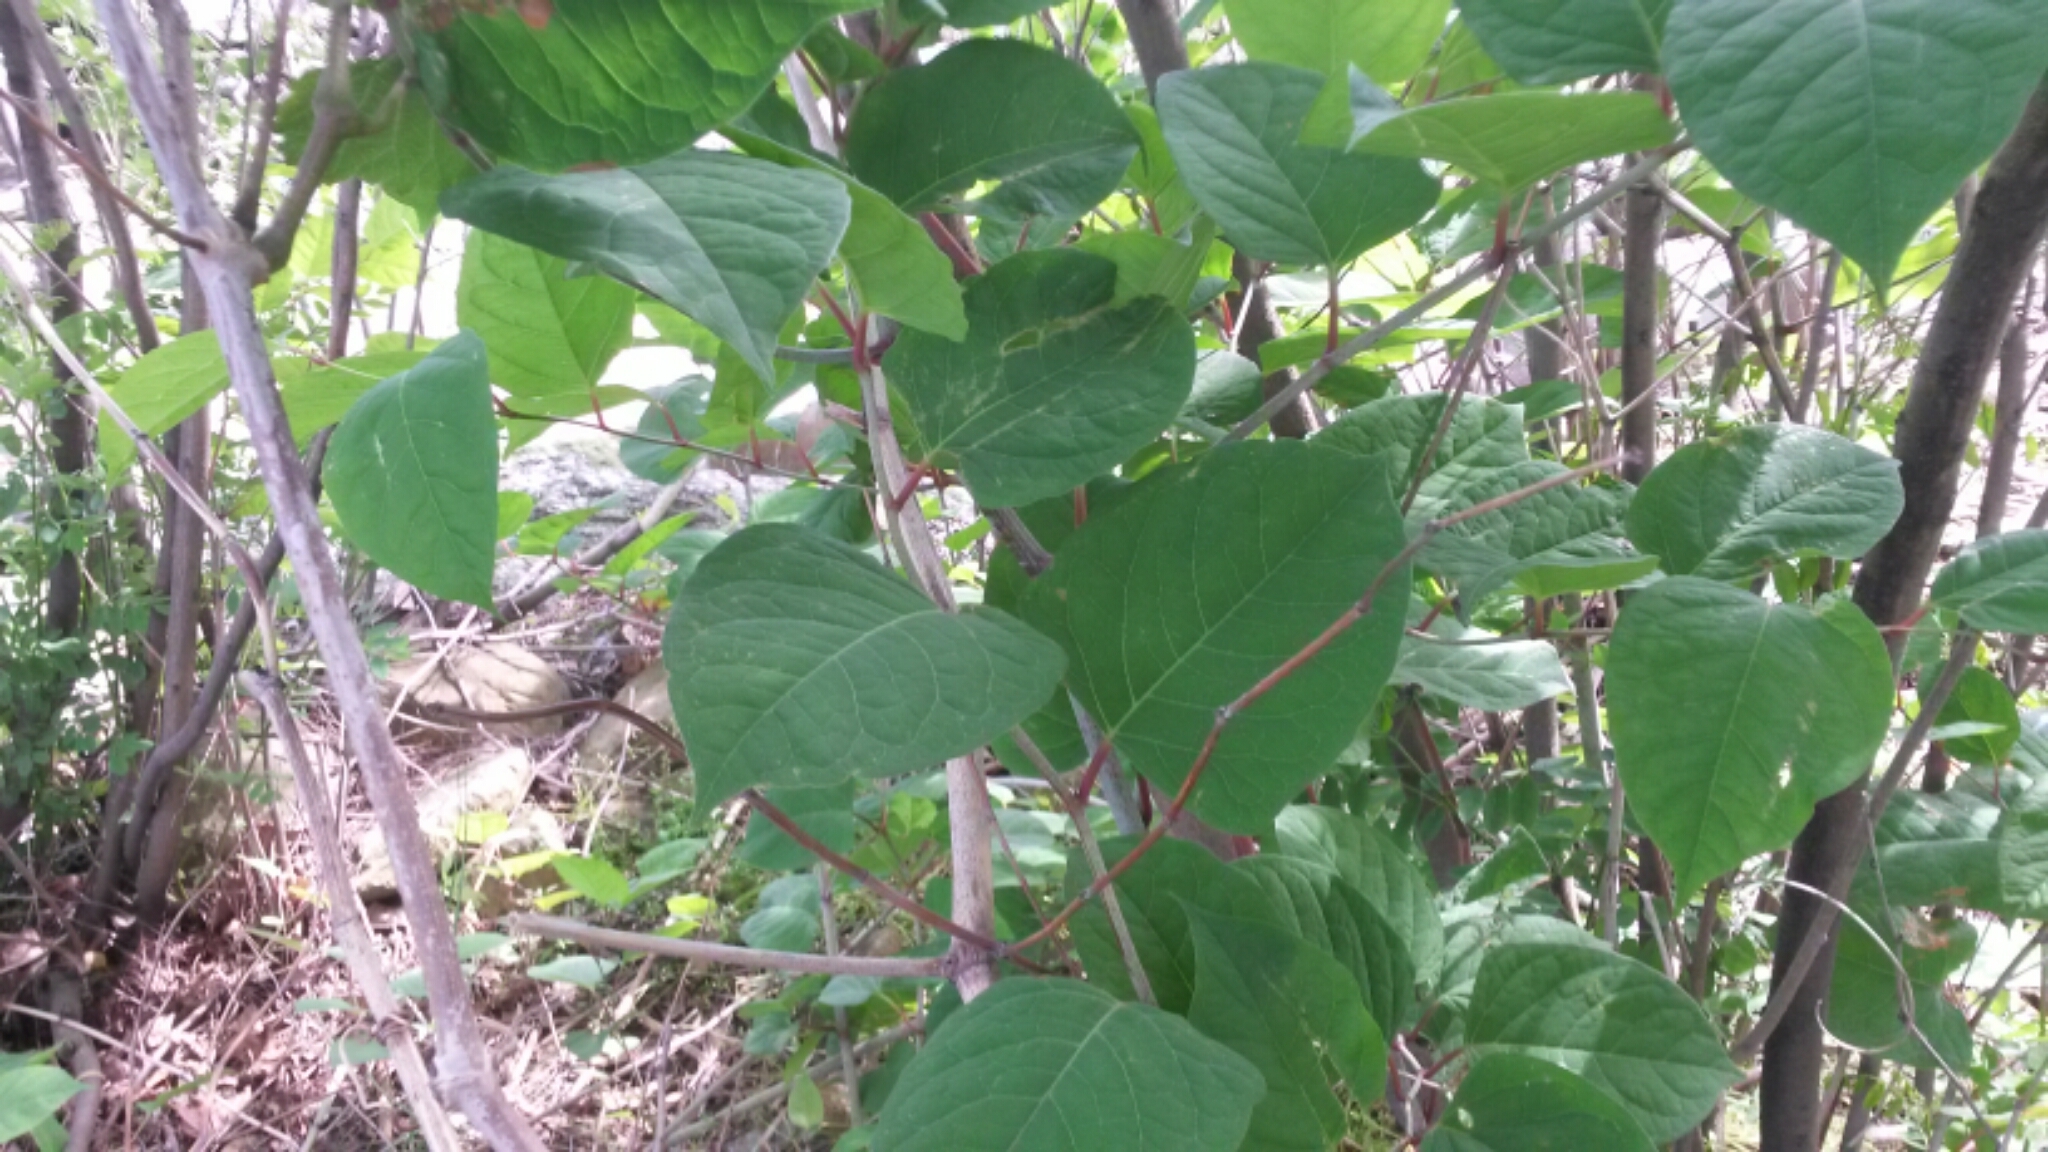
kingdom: Plantae
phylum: Tracheophyta
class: Magnoliopsida
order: Caryophyllales
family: Polygonaceae
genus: Reynoutria
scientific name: Reynoutria japonica
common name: Japanese knotweed
